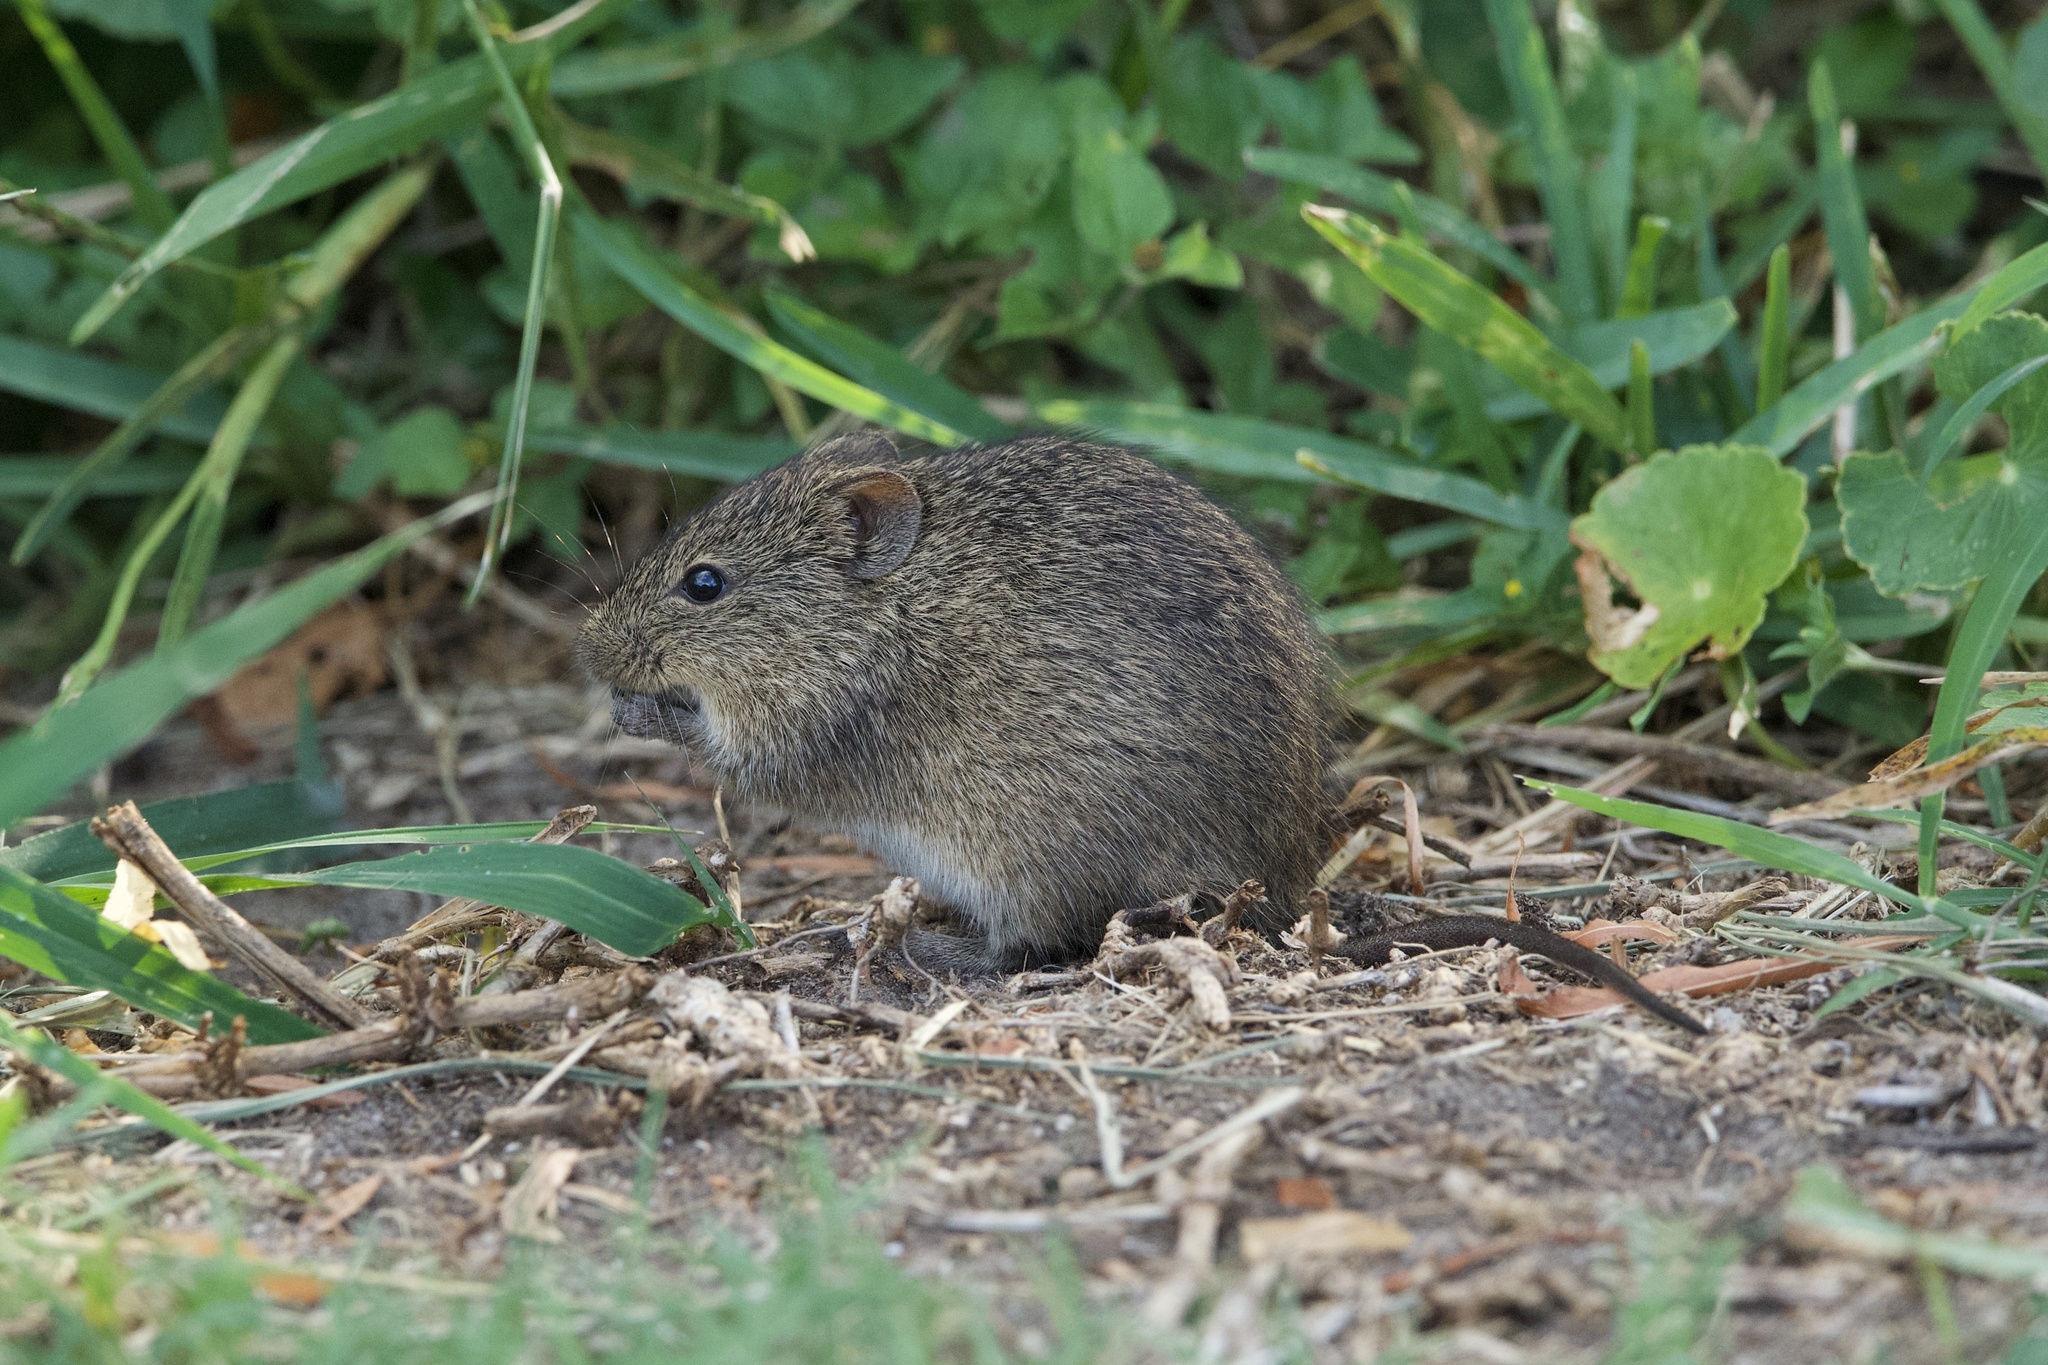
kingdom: Animalia
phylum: Chordata
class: Mammalia
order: Rodentia
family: Cricetidae
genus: Sigmodon
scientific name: Sigmodon hispidus
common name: Hispid cotton rat
